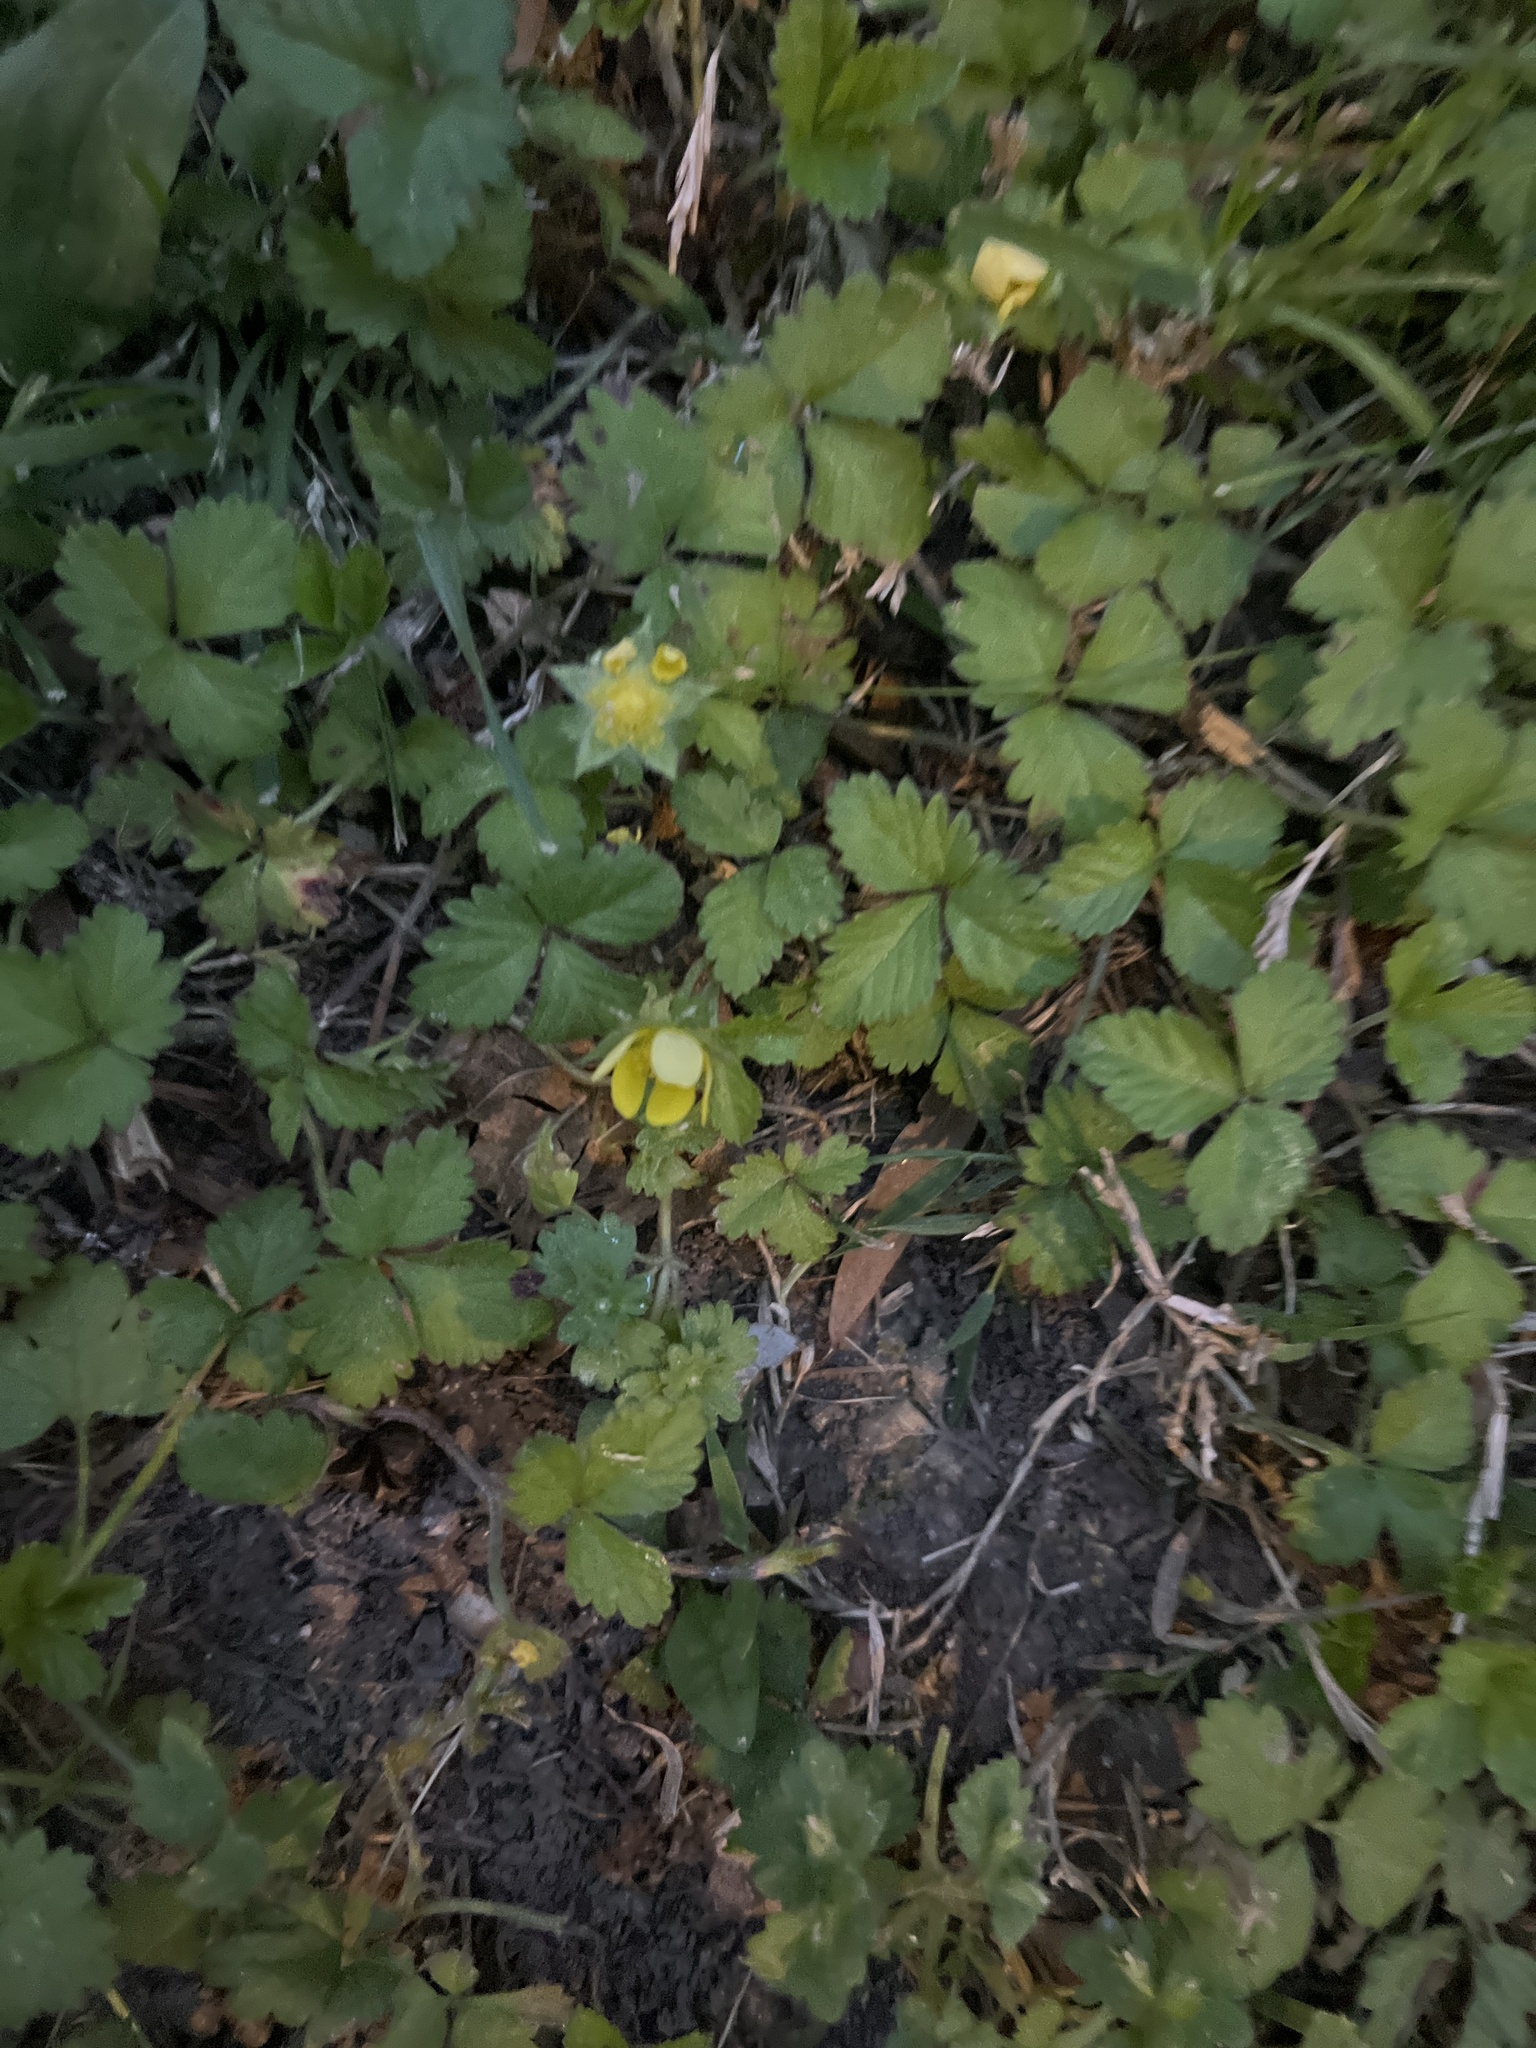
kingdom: Plantae
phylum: Tracheophyta
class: Magnoliopsida
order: Rosales
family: Rosaceae
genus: Potentilla
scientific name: Potentilla indica
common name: Yellow-flowered strawberry
